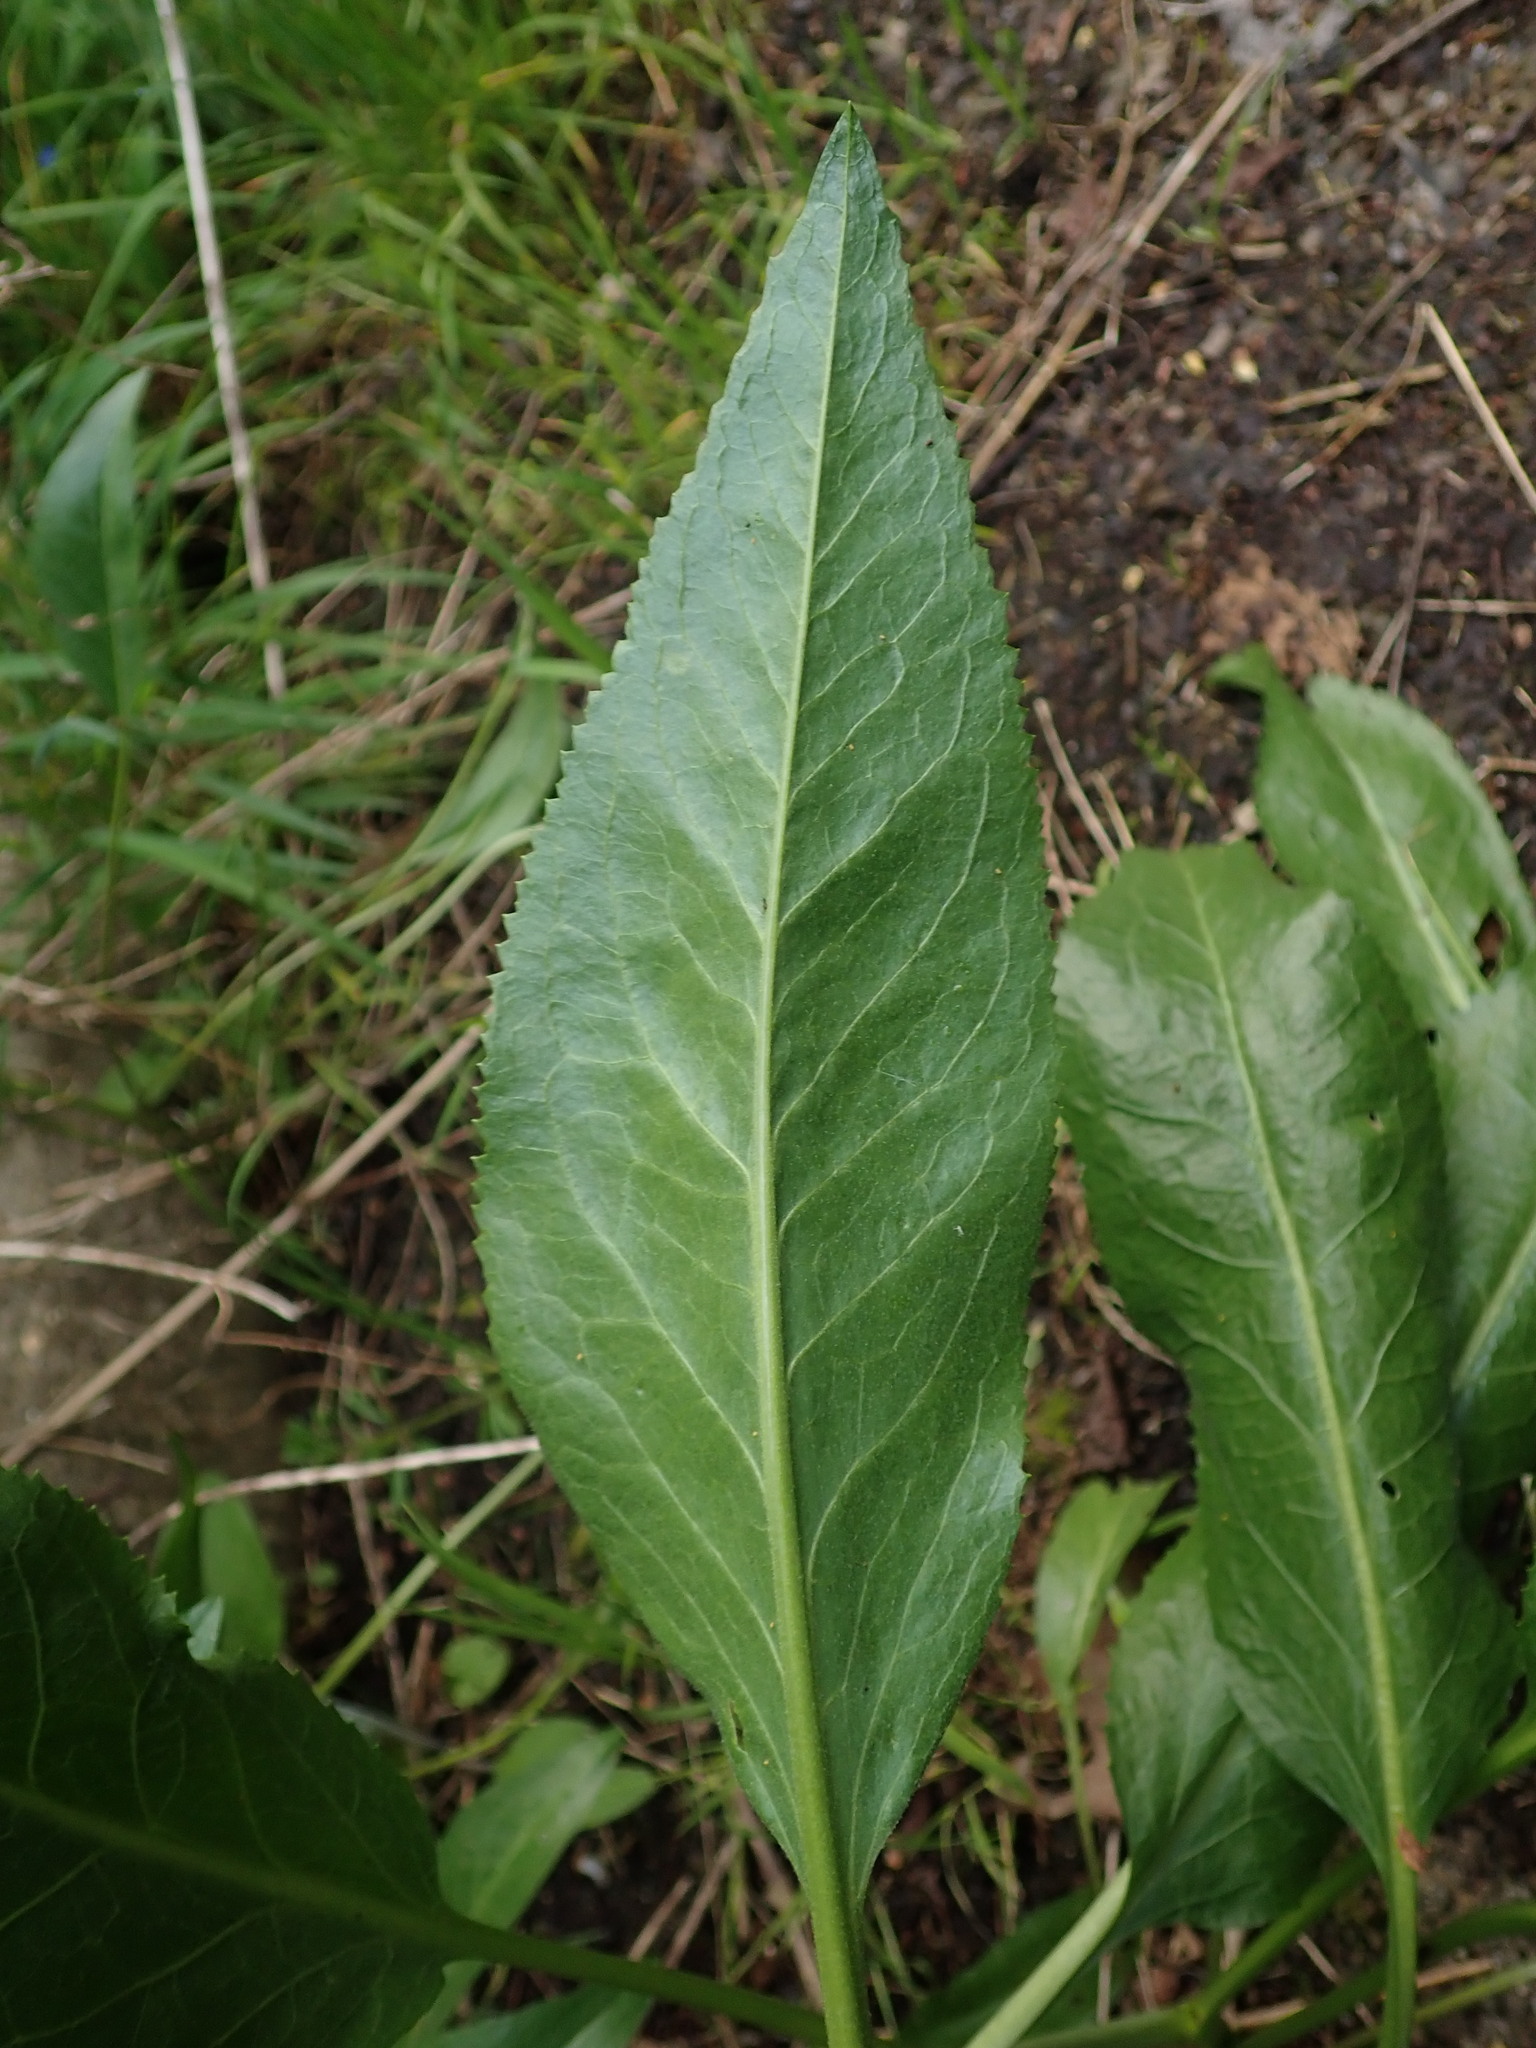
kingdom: Plantae
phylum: Tracheophyta
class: Magnoliopsida
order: Brassicales
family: Brassicaceae
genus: Lepidium
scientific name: Lepidium latifolium
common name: Dittander
